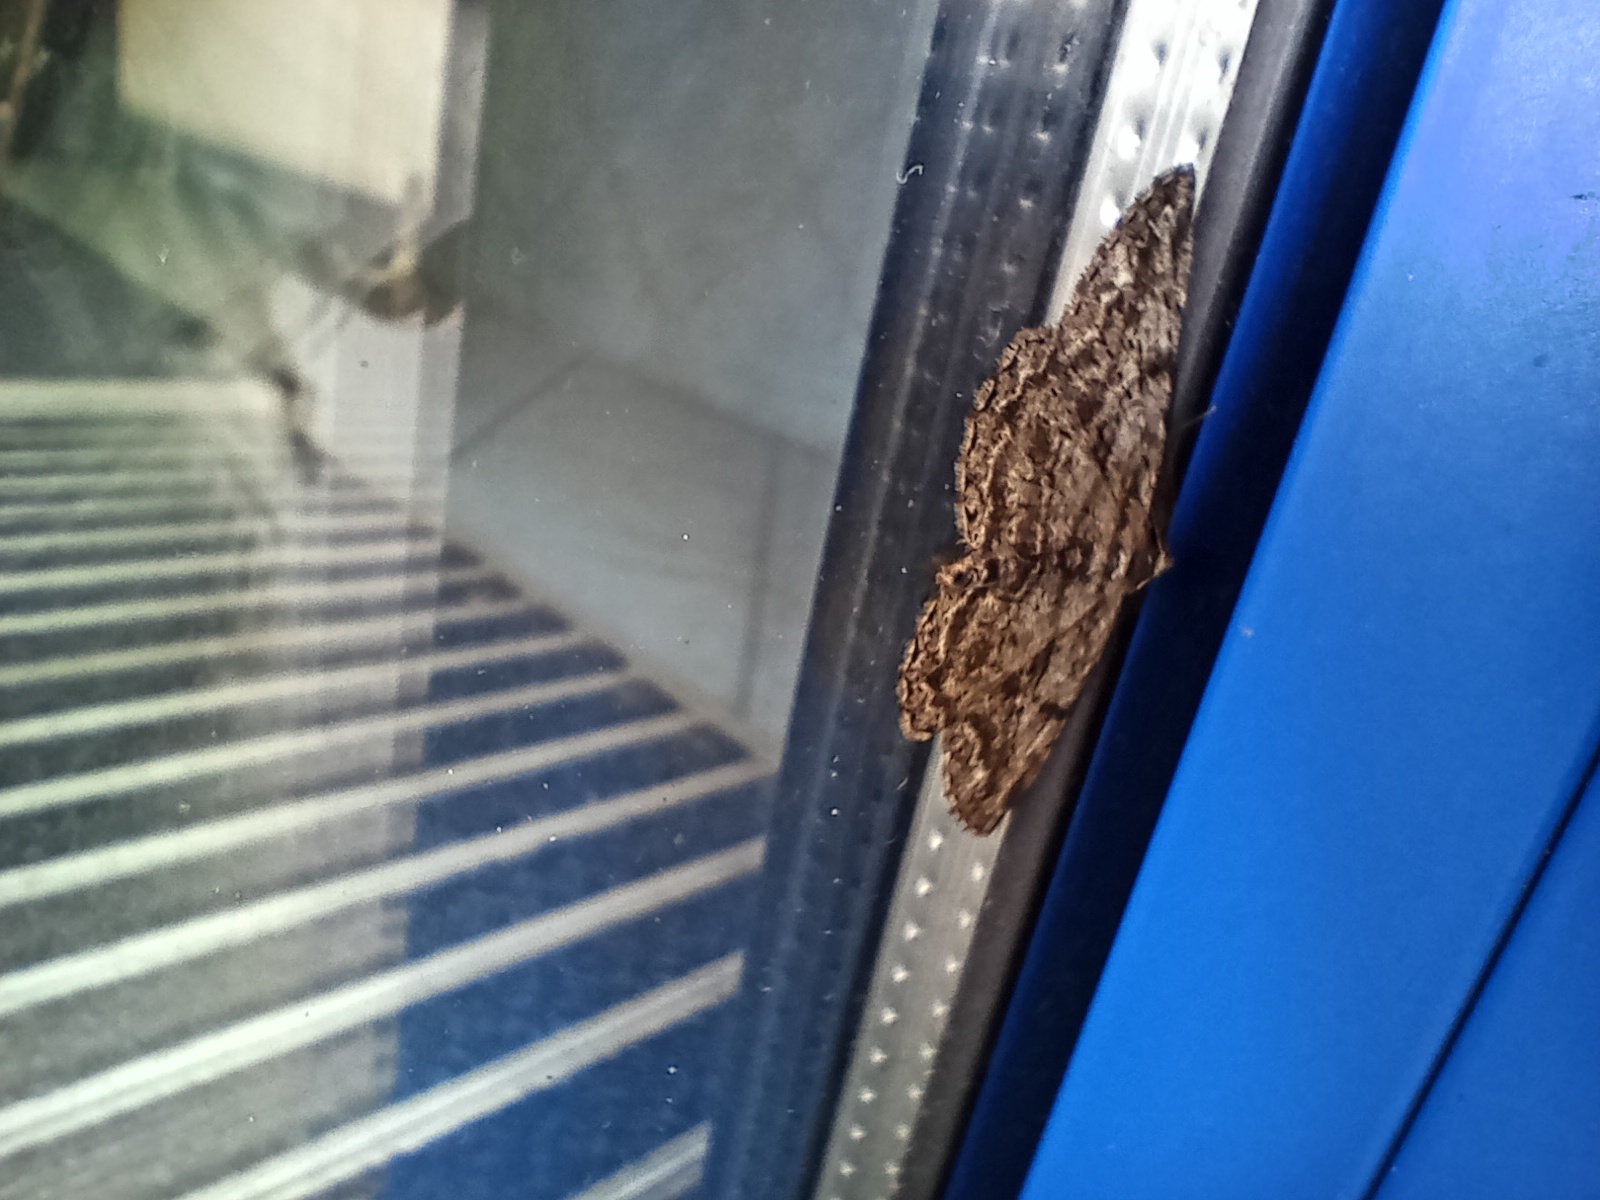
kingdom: Animalia
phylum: Arthropoda
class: Insecta
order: Lepidoptera
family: Geometridae
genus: Peribatodes
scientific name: Peribatodes rhomboidaria
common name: Willow beauty
